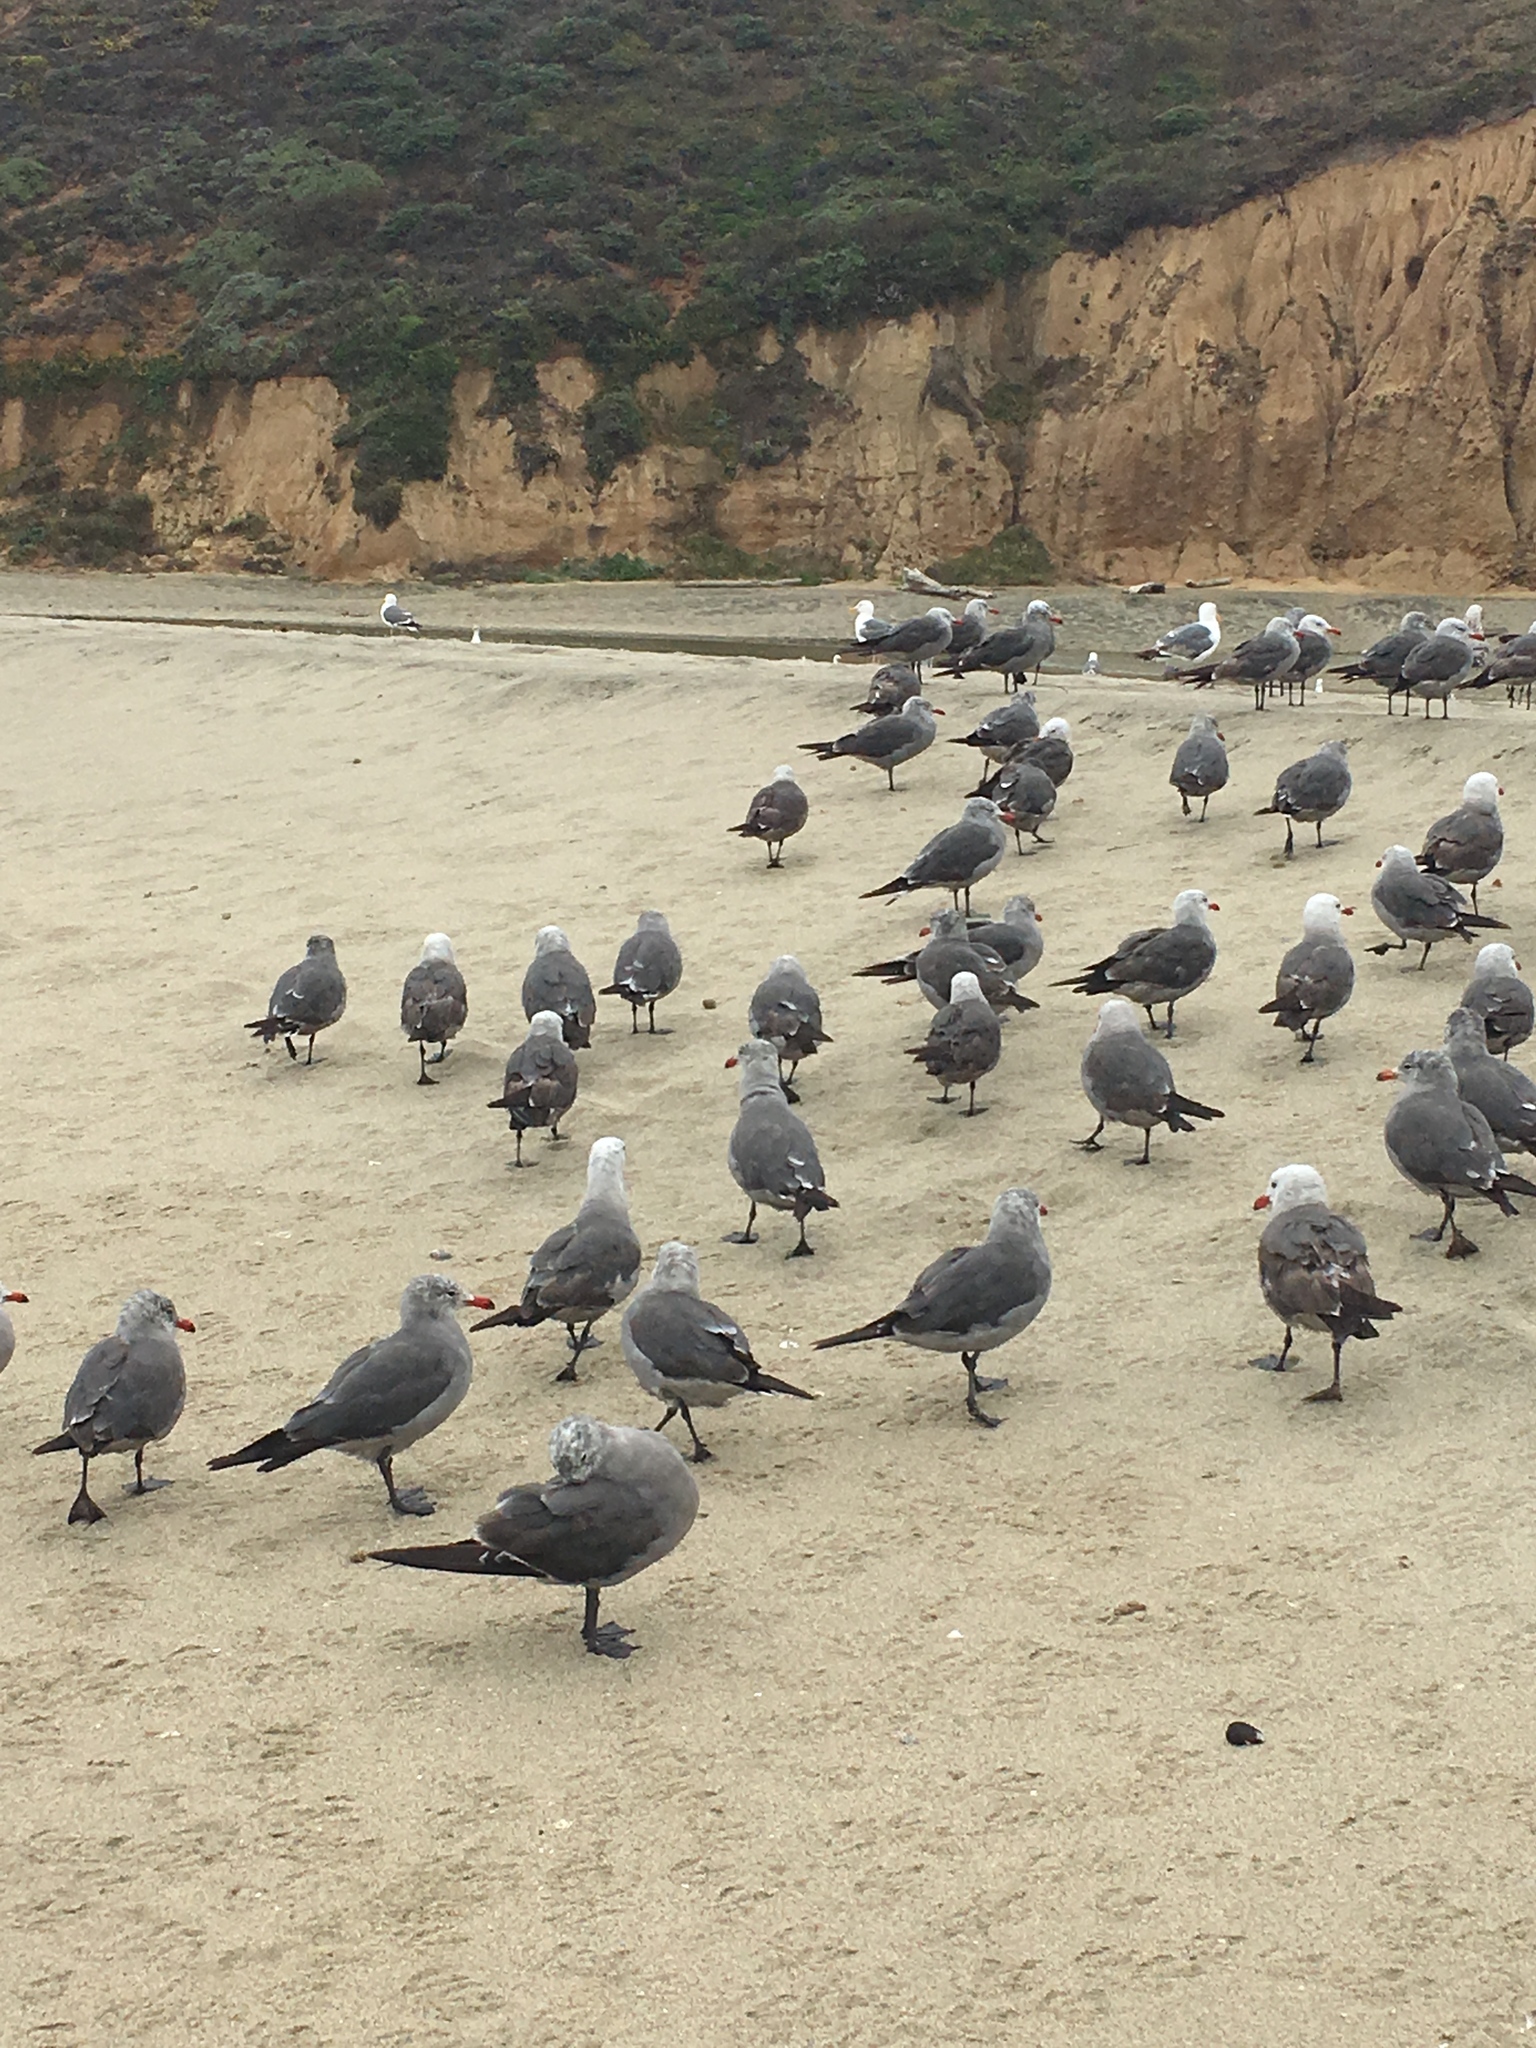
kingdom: Animalia
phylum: Chordata
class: Aves
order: Charadriiformes
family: Laridae
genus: Larus
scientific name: Larus heermanni
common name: Heermann's gull
